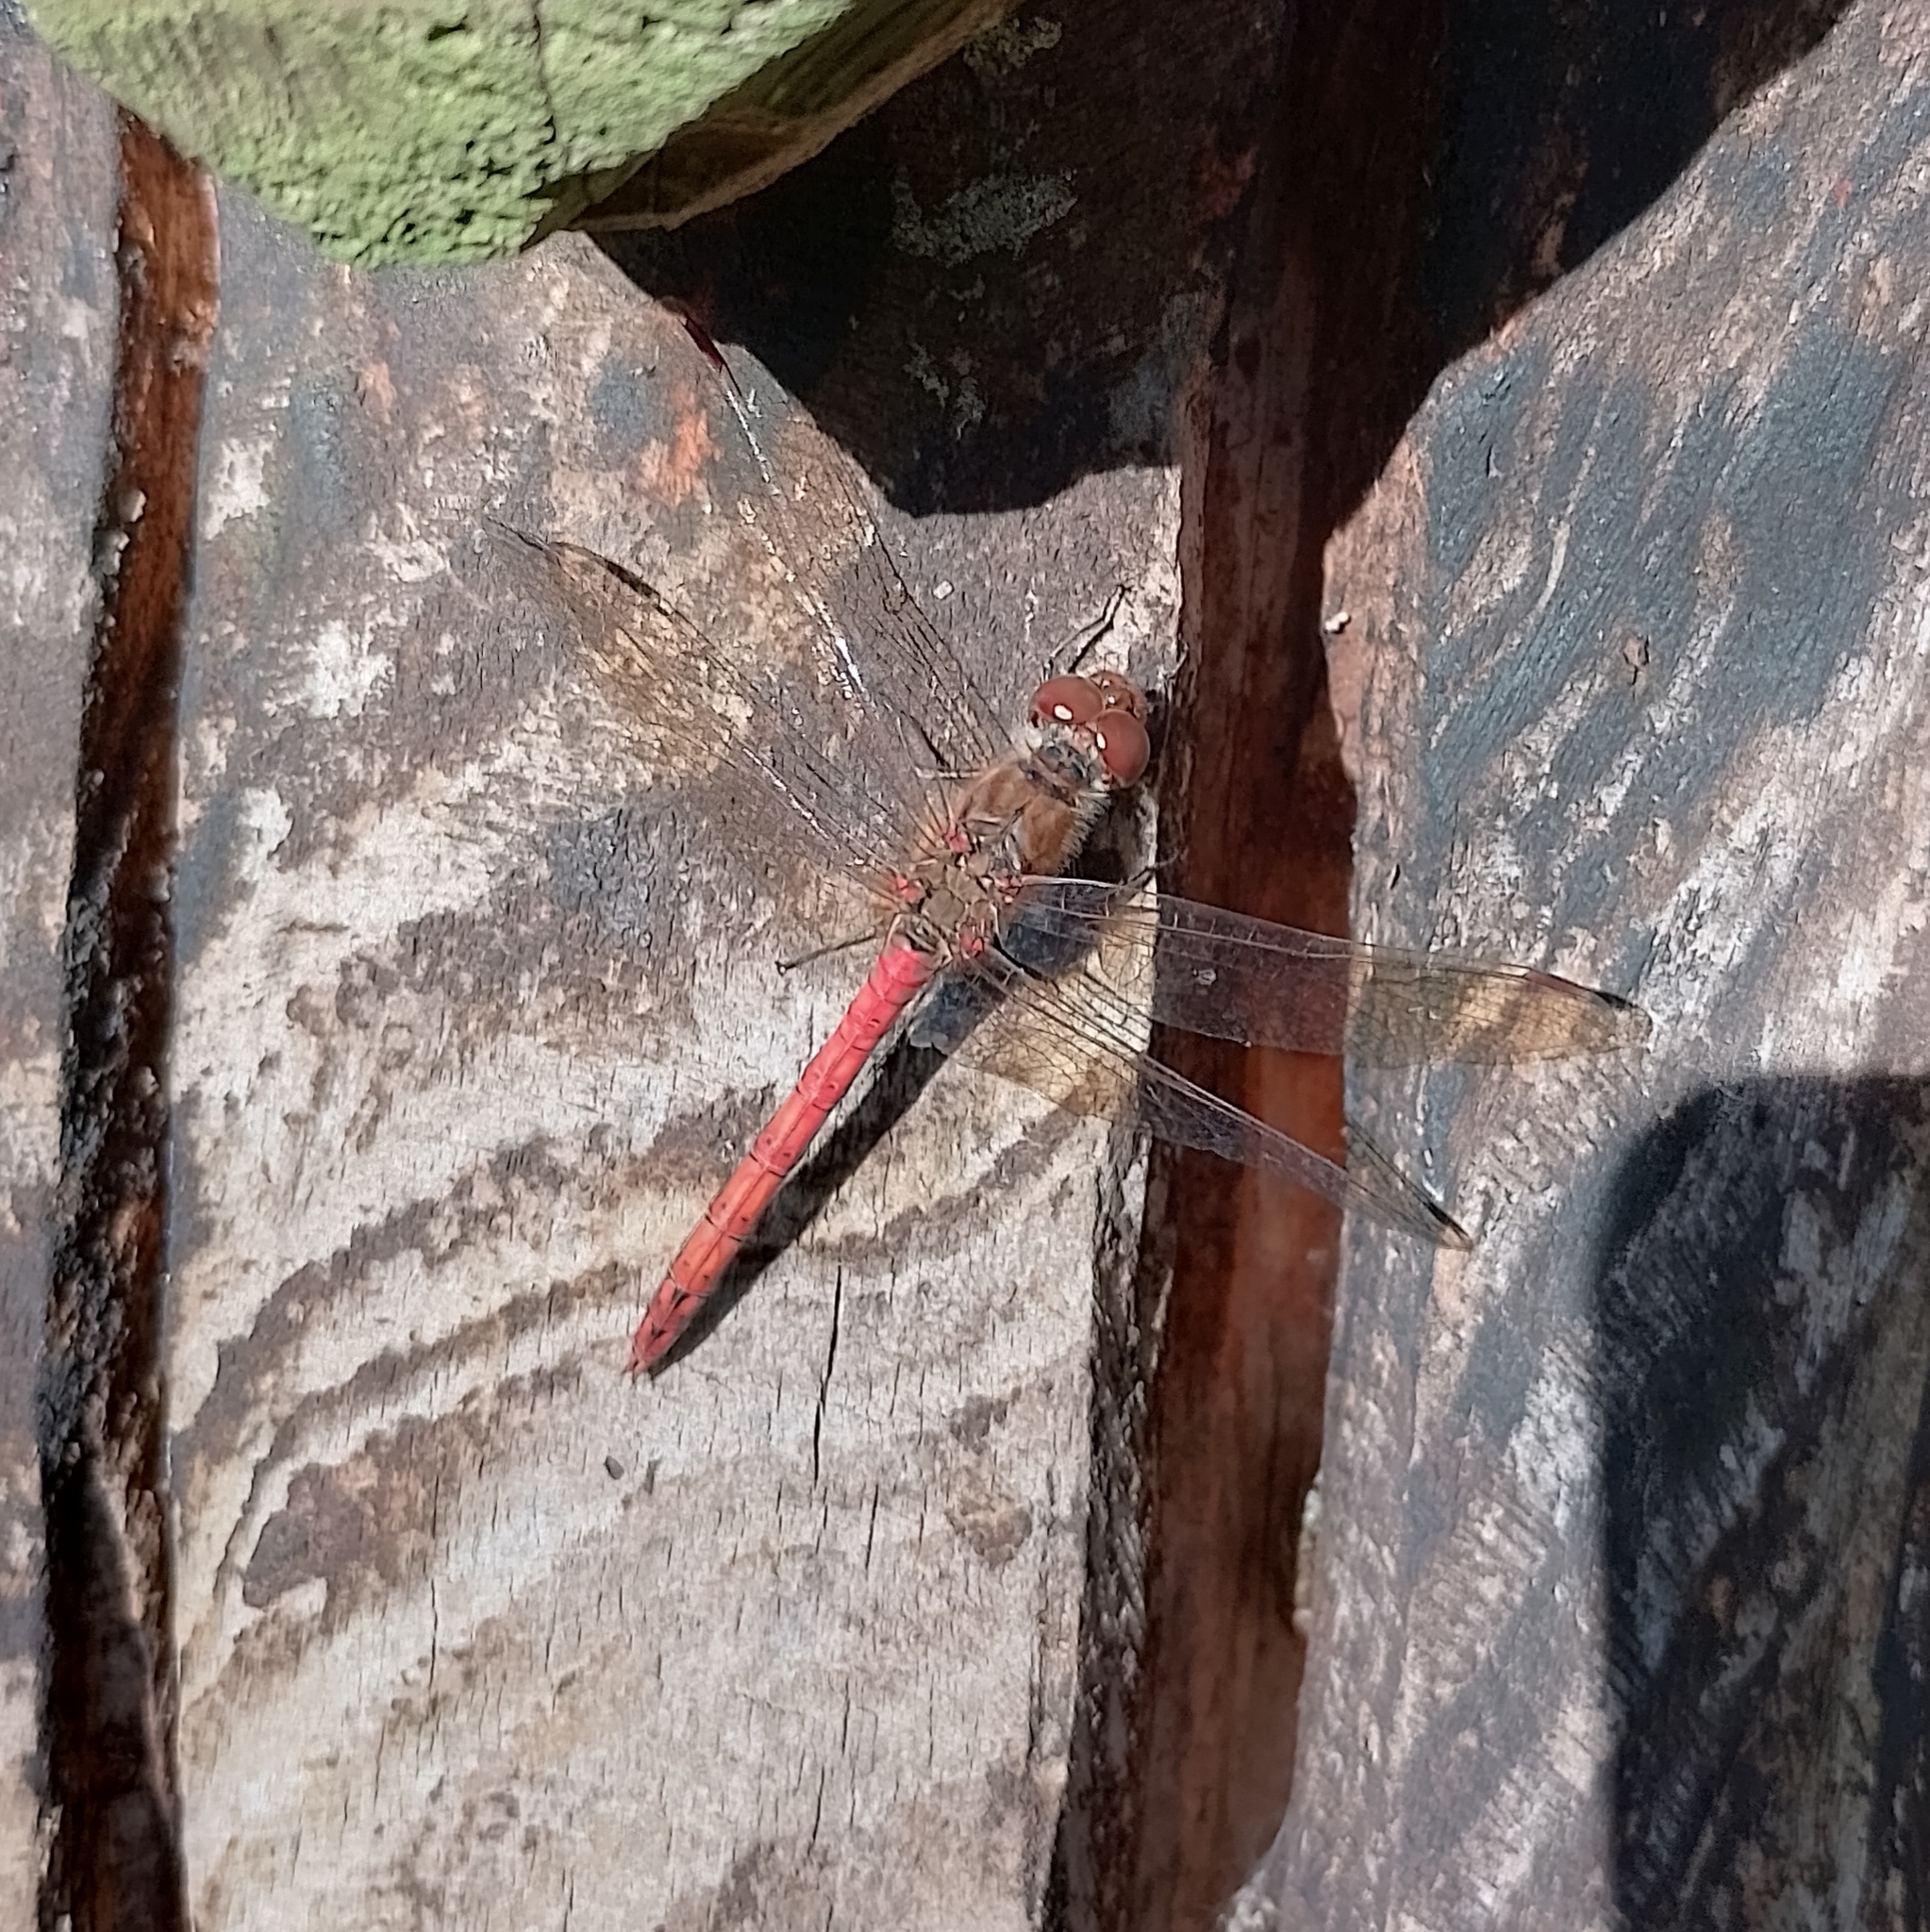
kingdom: Animalia
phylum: Arthropoda
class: Insecta
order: Odonata
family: Libellulidae
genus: Sympetrum
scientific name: Sympetrum striolatum
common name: Common darter
